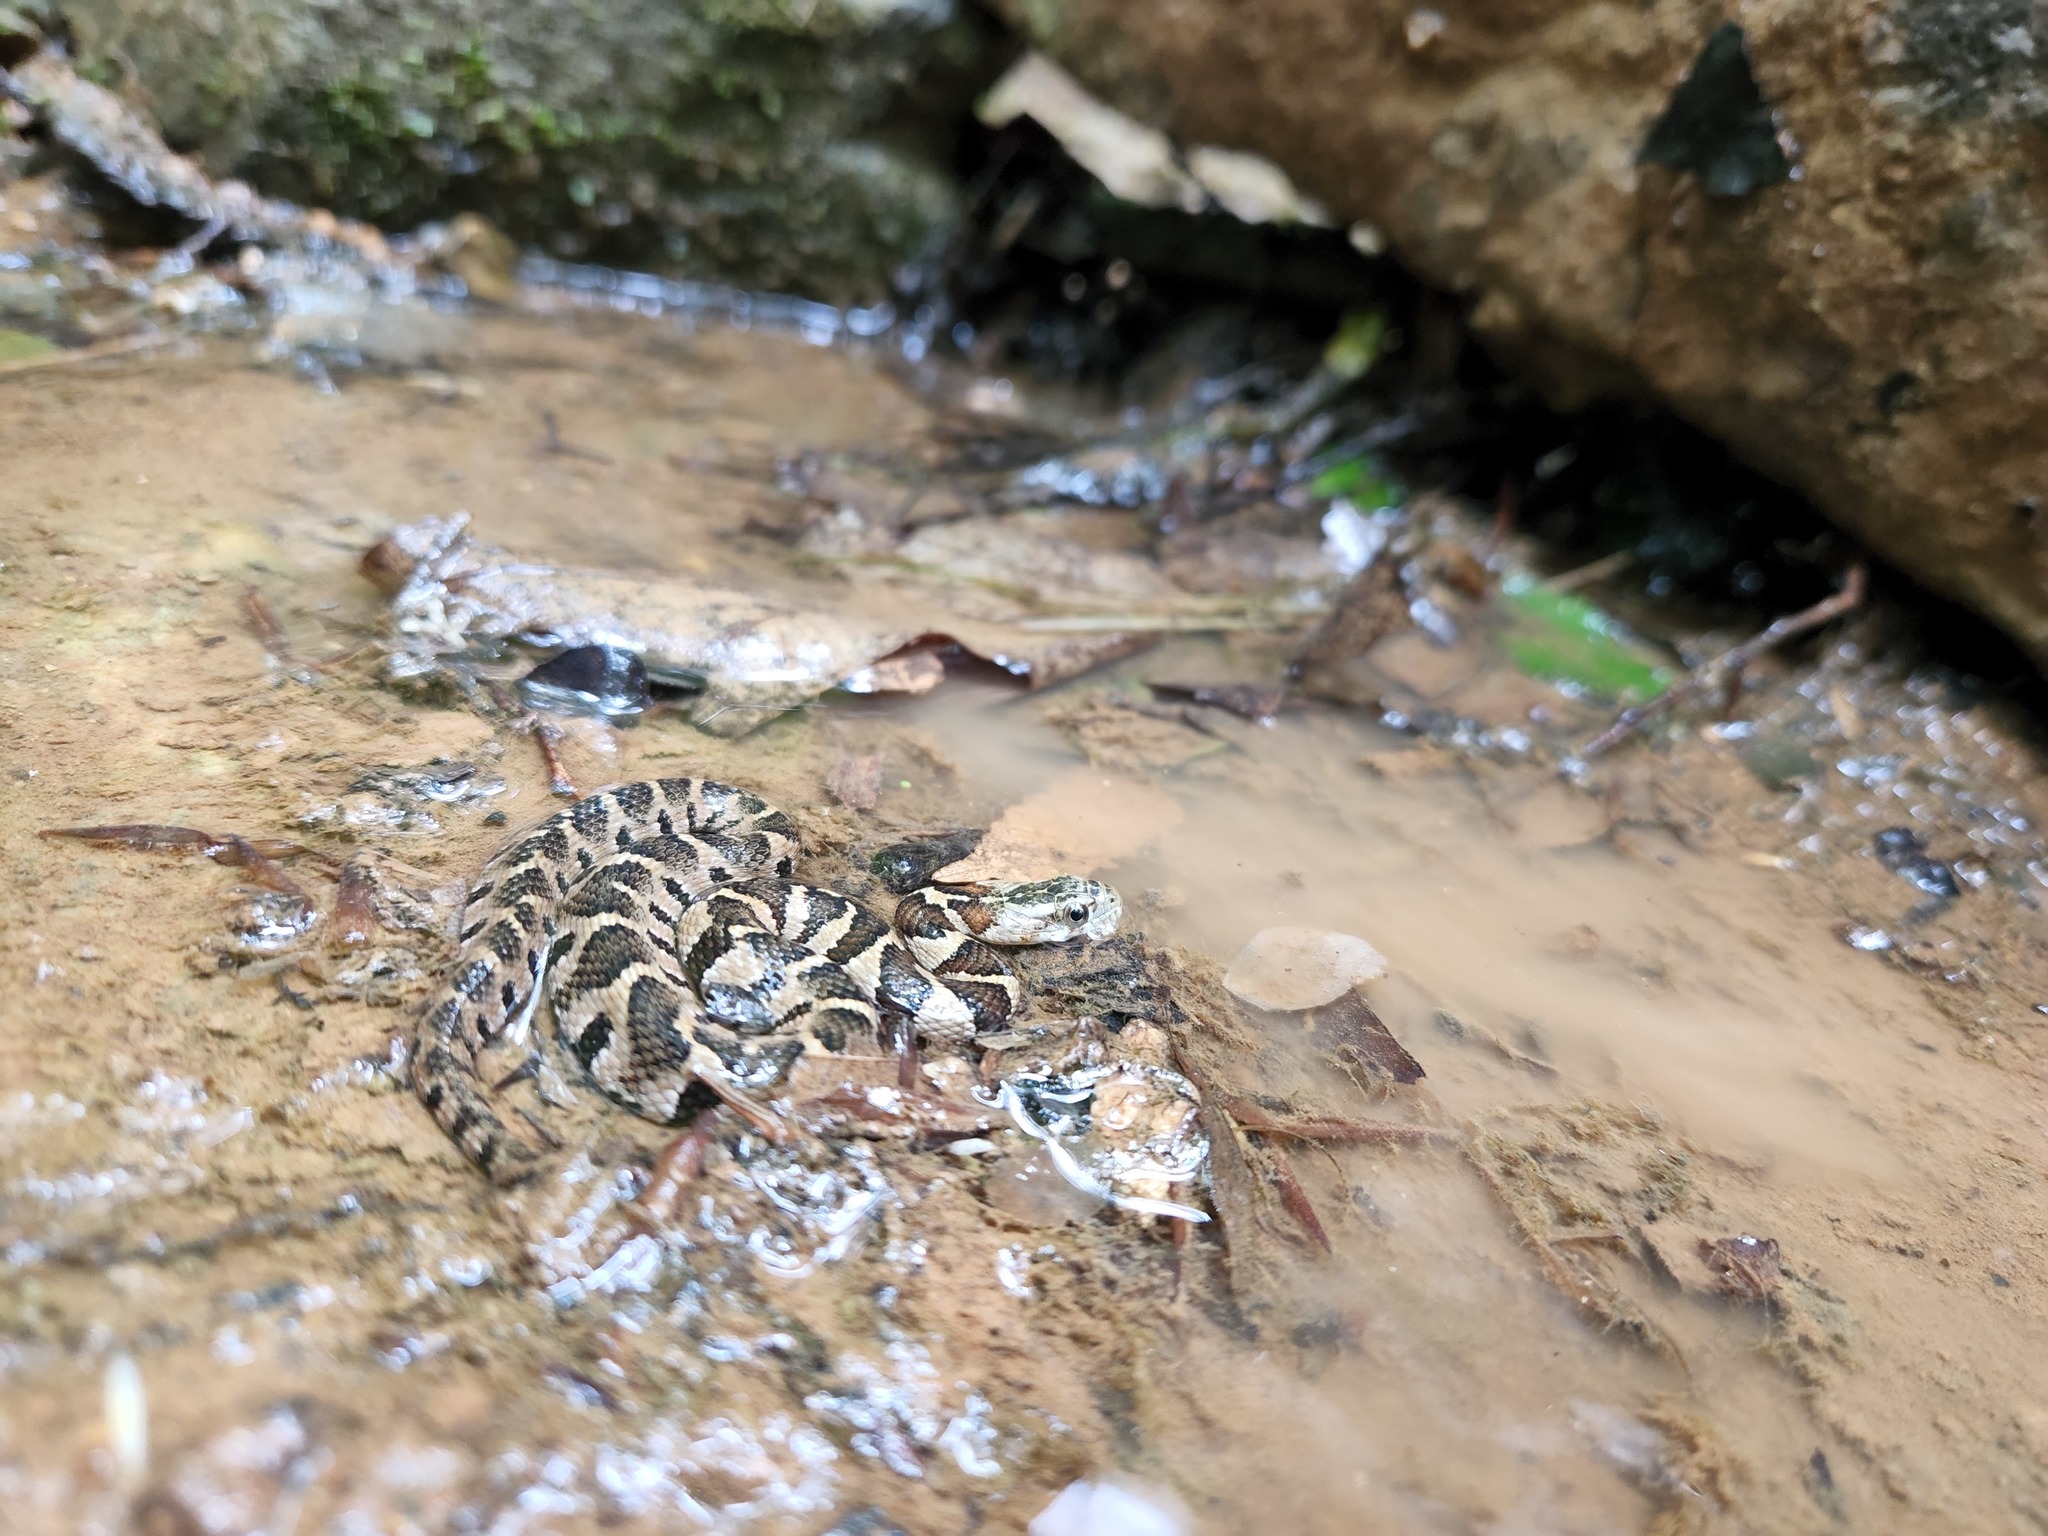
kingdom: Animalia
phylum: Chordata
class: Squamata
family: Colubridae
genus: Nerodia
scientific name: Nerodia sipedon
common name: Northern water snake
